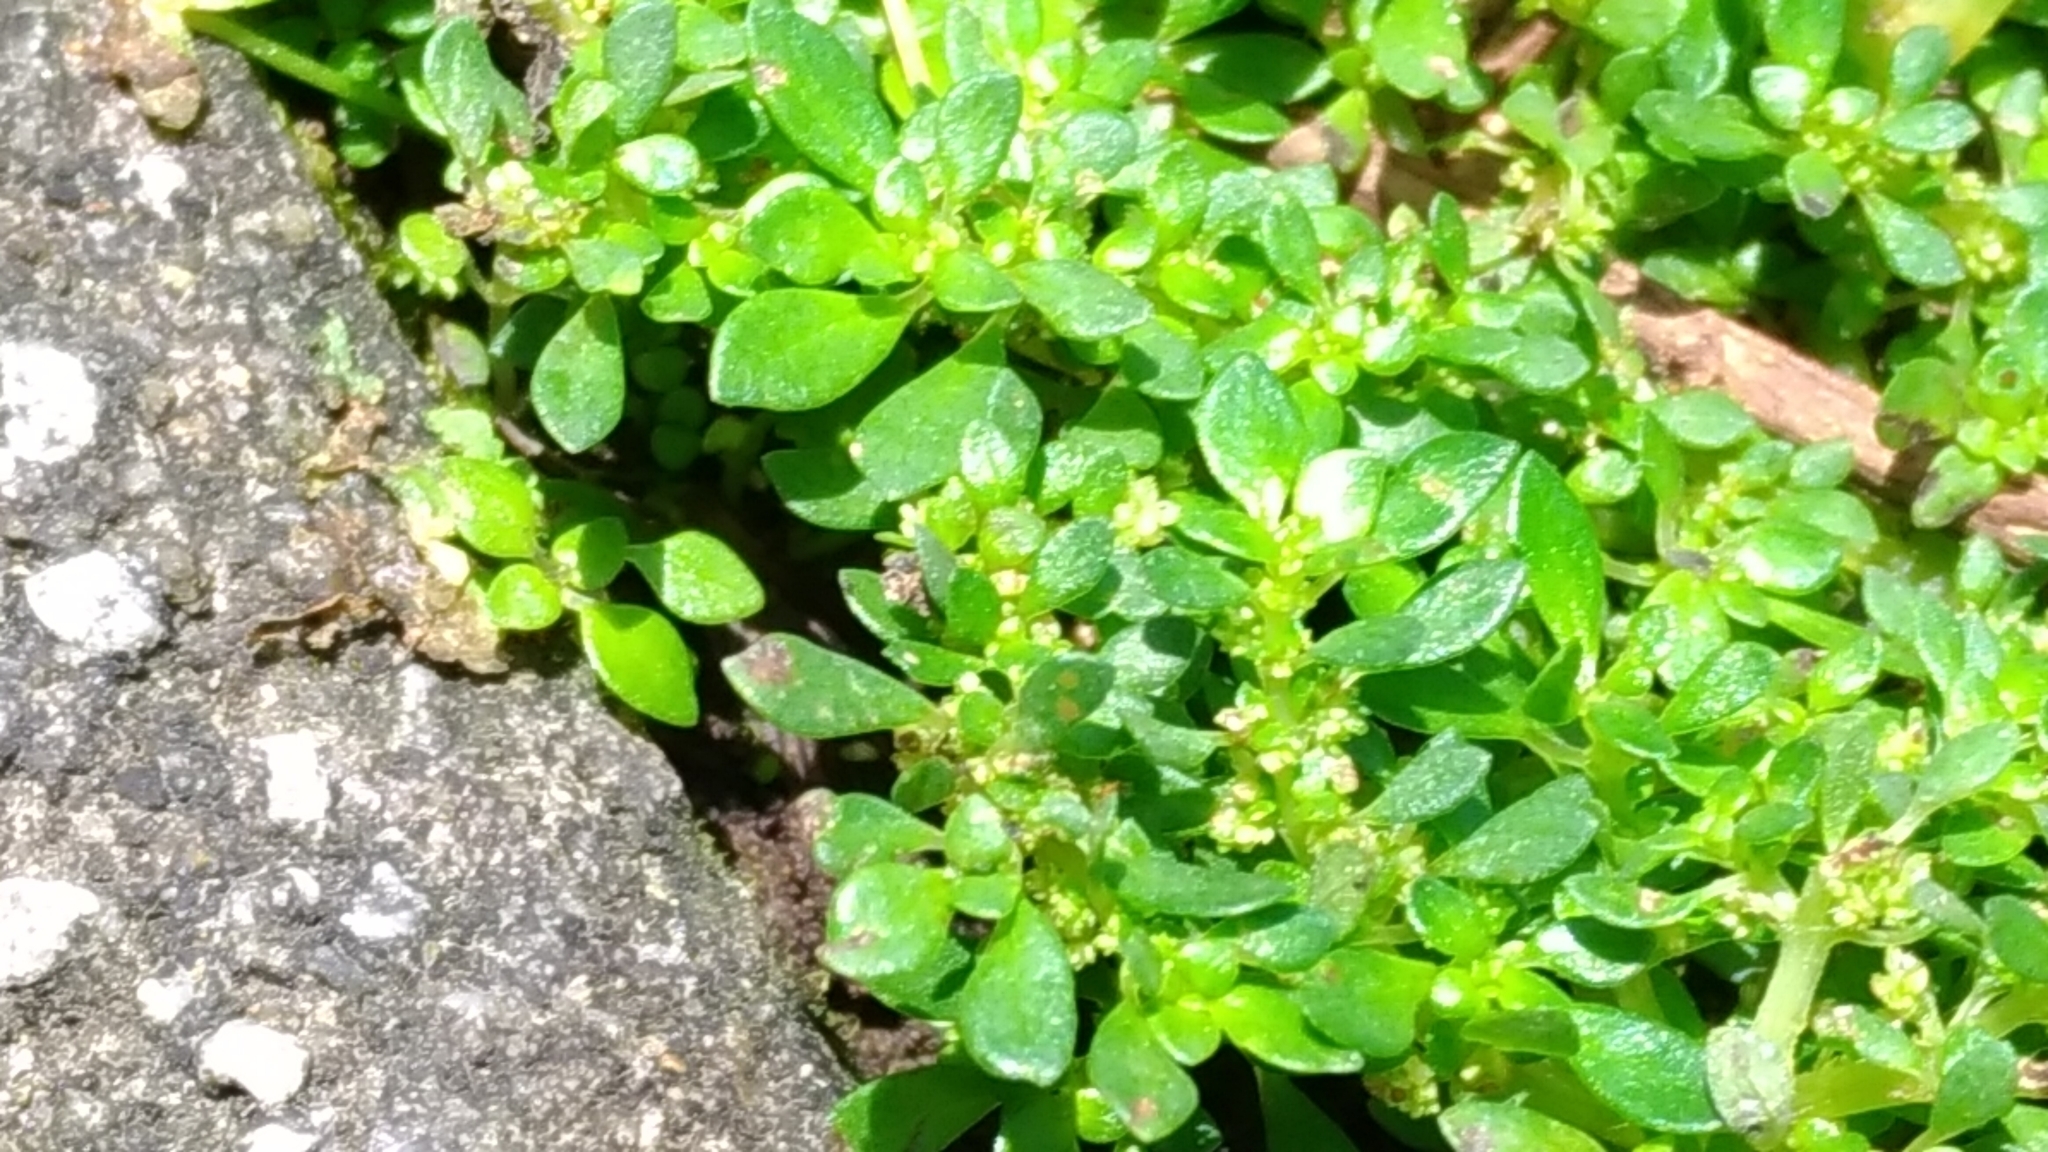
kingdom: Plantae
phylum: Tracheophyta
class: Magnoliopsida
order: Rosales
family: Urticaceae
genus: Pilea
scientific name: Pilea microphylla
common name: Artillery-plant
